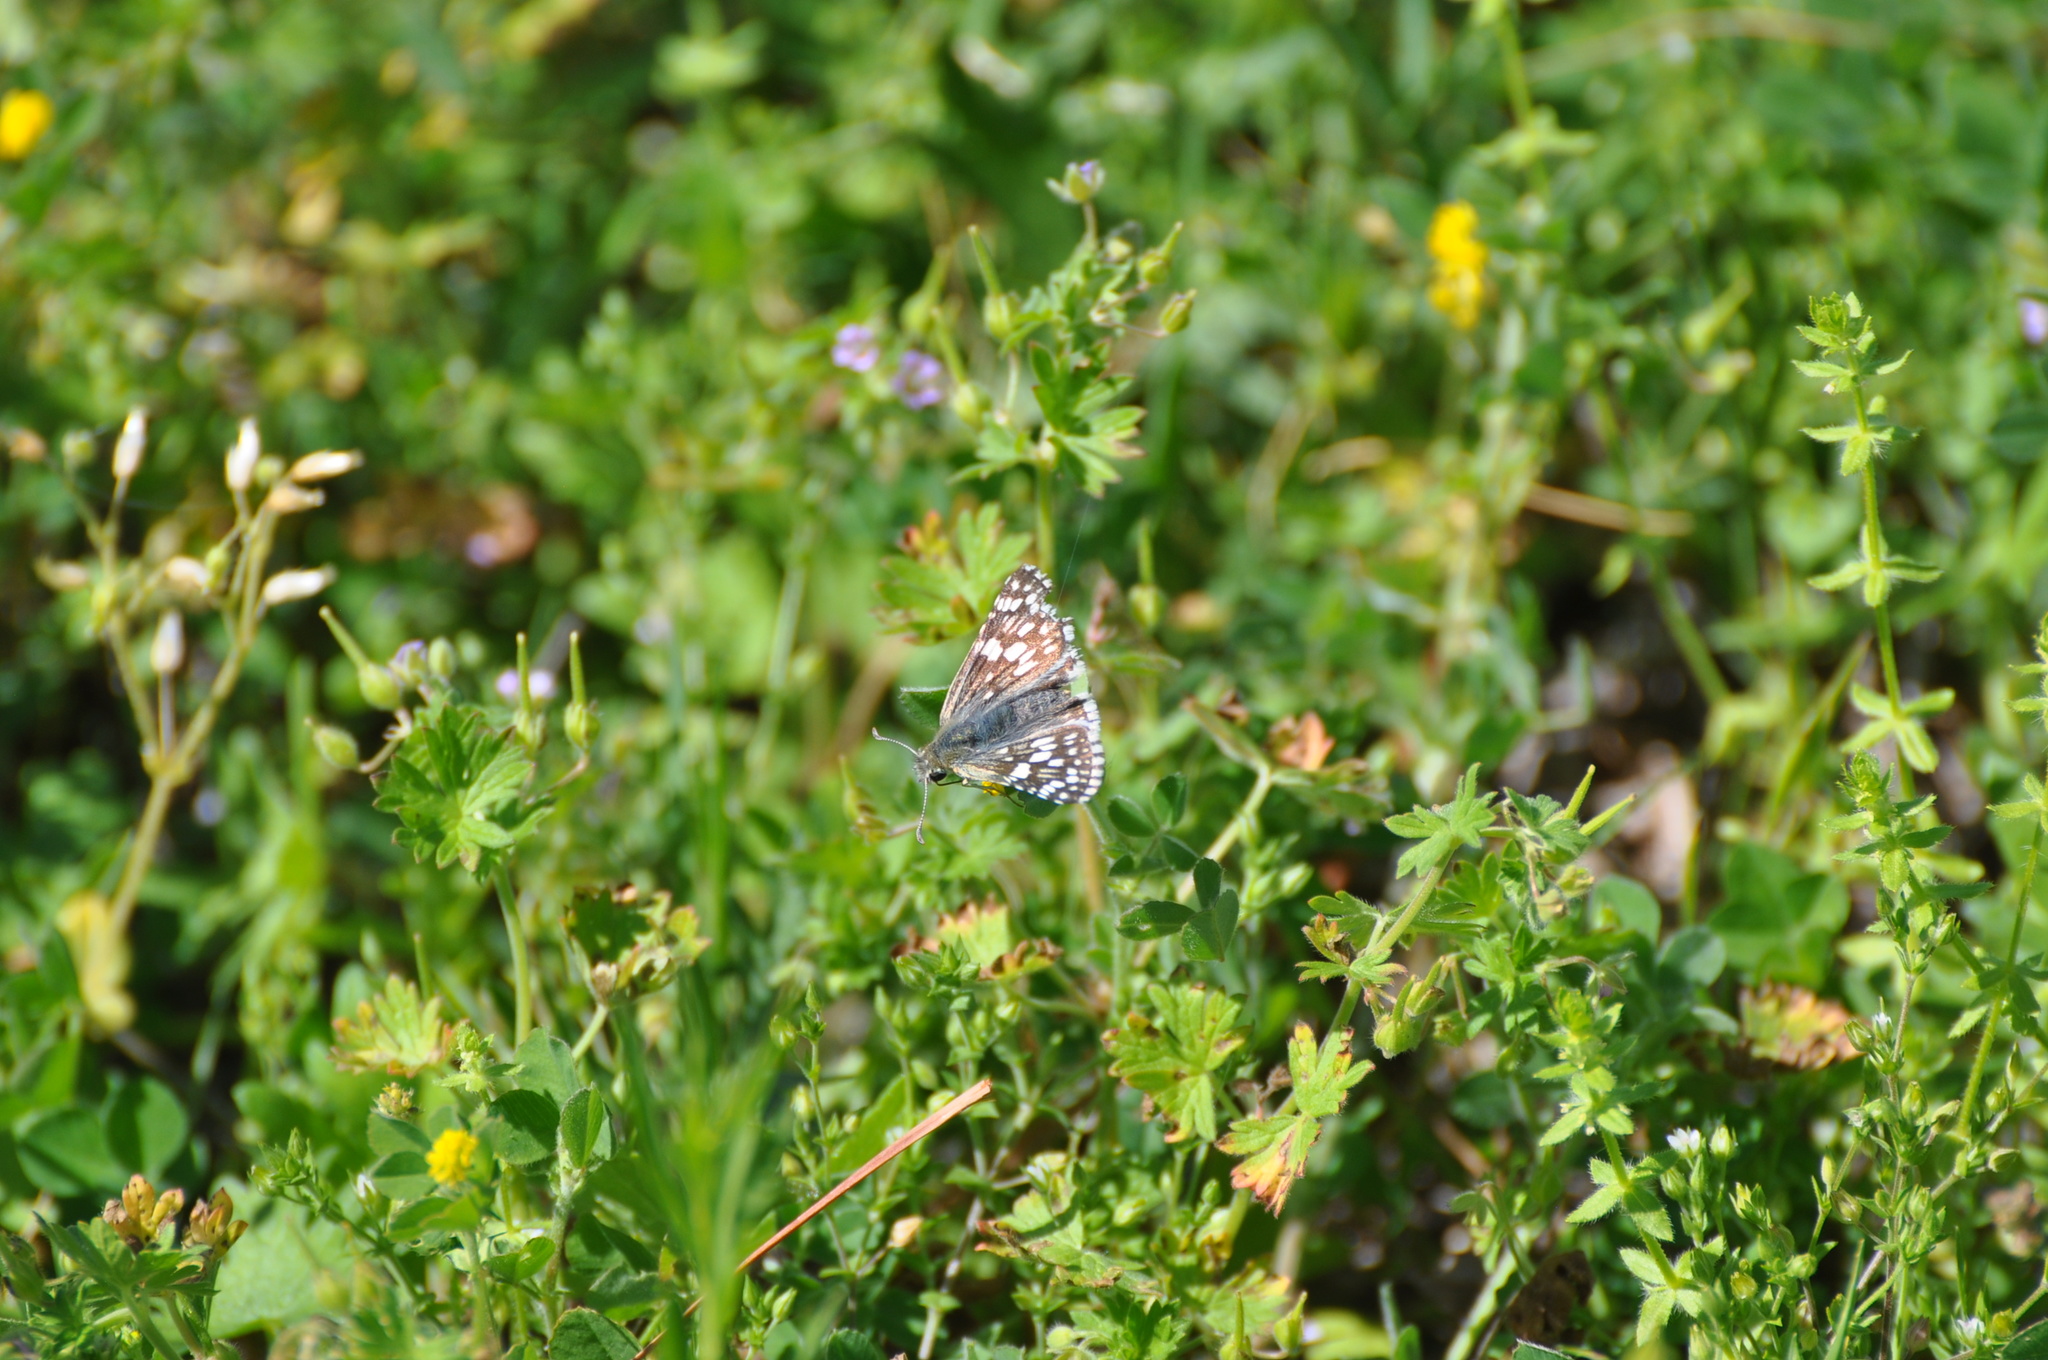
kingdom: Animalia
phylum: Arthropoda
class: Insecta
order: Lepidoptera
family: Hesperiidae
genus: Burnsius
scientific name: Burnsius communis
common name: Common checkered-skipper
